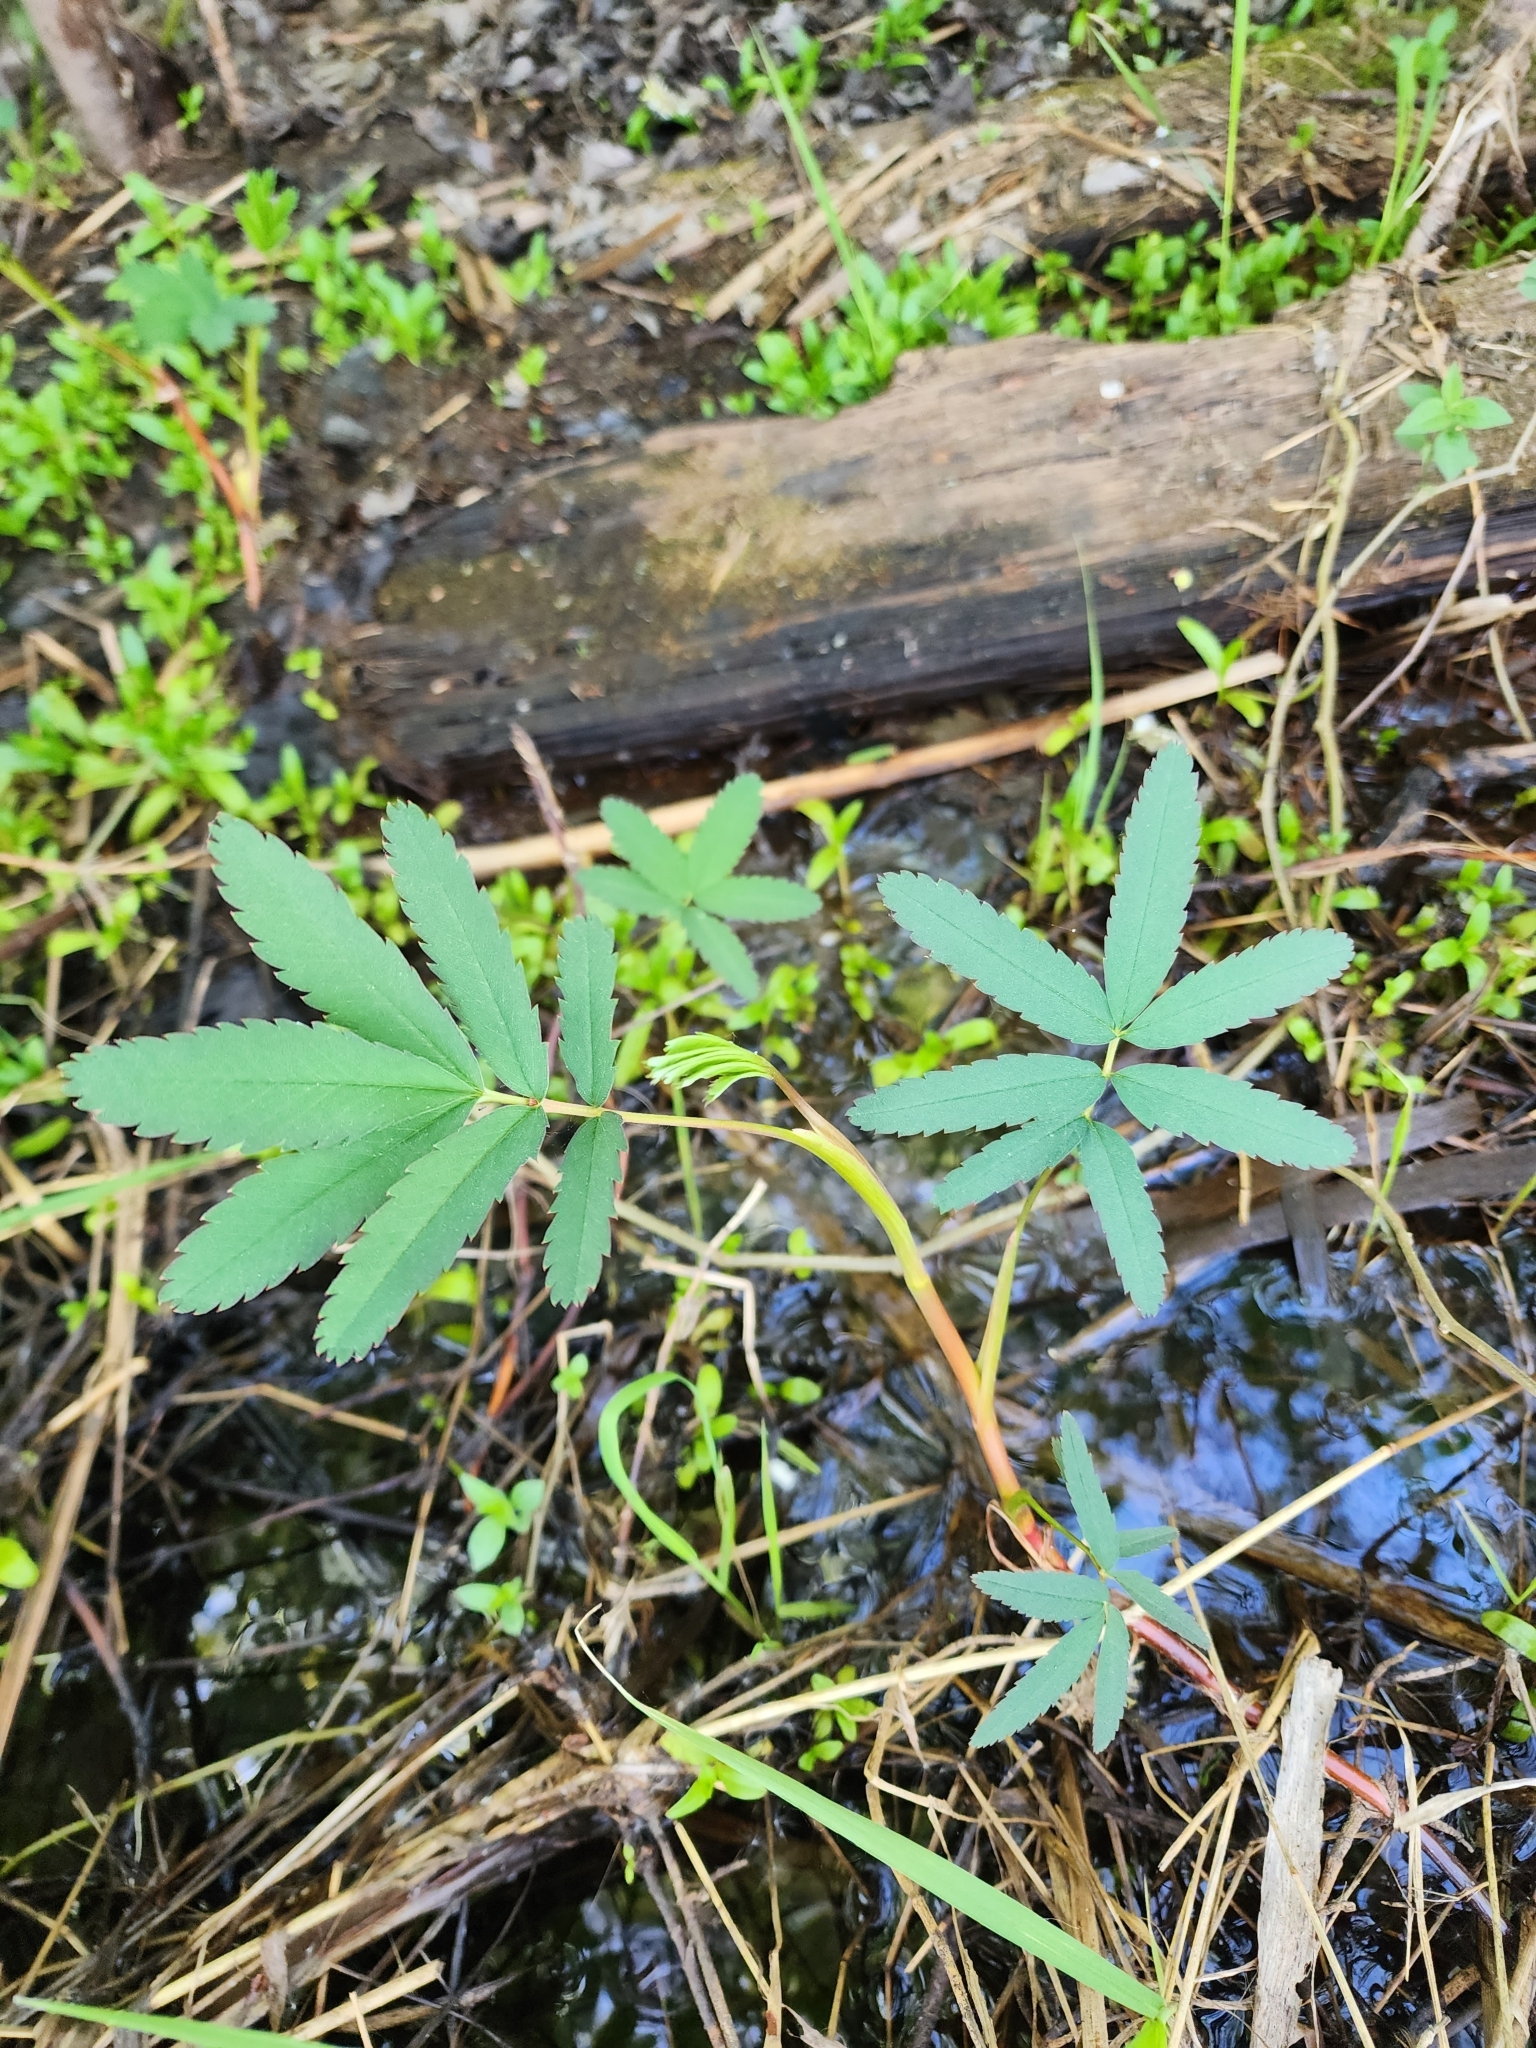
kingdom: Plantae
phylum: Tracheophyta
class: Magnoliopsida
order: Rosales
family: Rosaceae
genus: Comarum
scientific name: Comarum palustre
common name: Marsh cinquefoil
